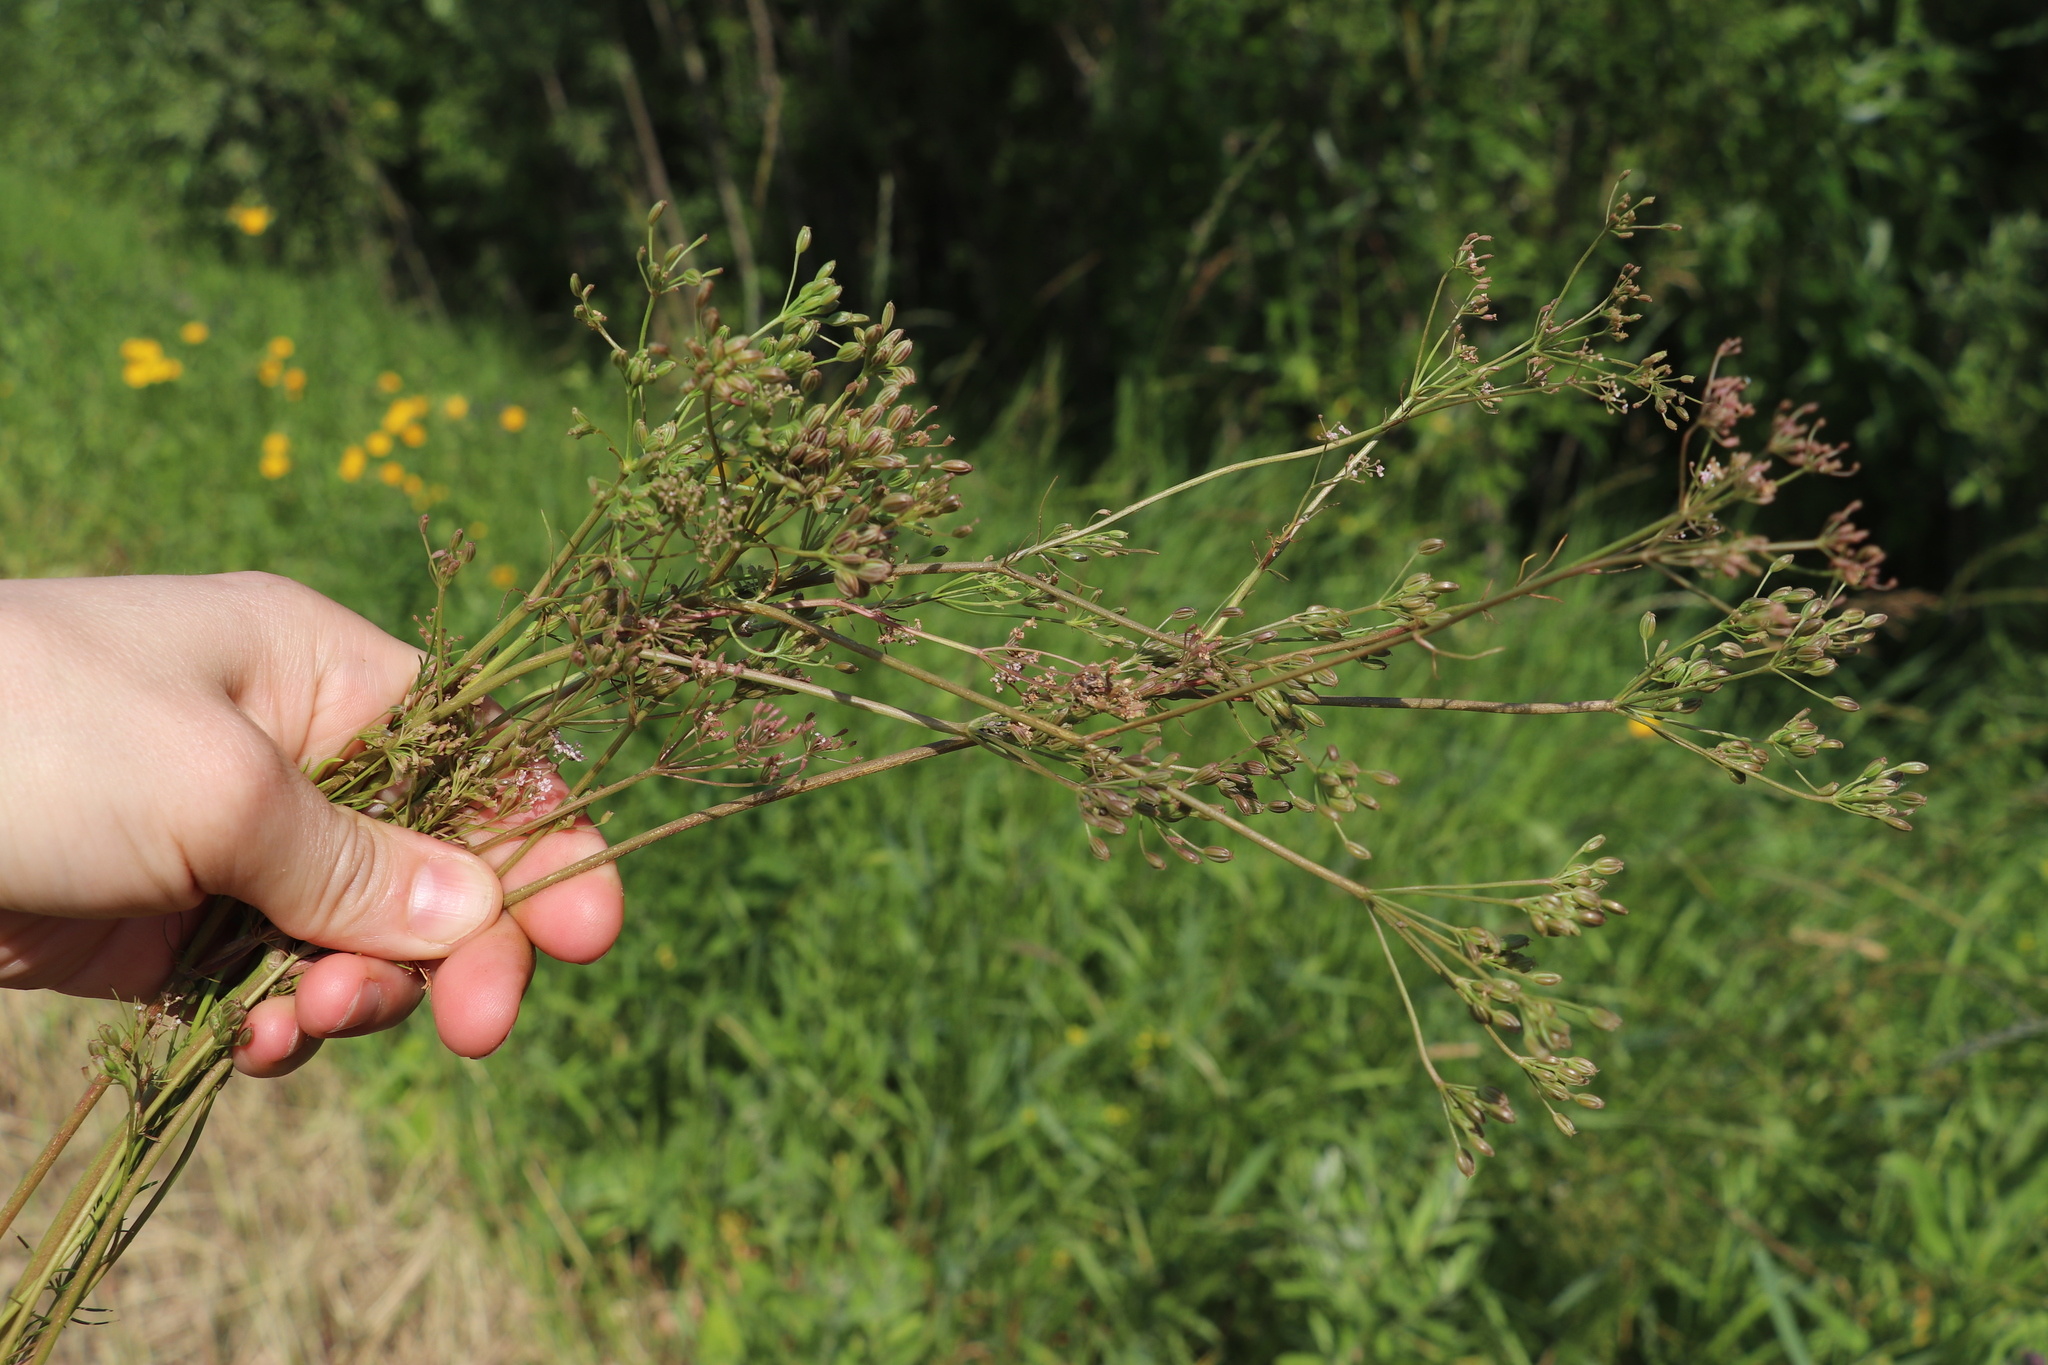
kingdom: Plantae
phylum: Tracheophyta
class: Magnoliopsida
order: Apiales
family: Apiaceae
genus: Carum
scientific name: Carum carvi
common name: Caraway
